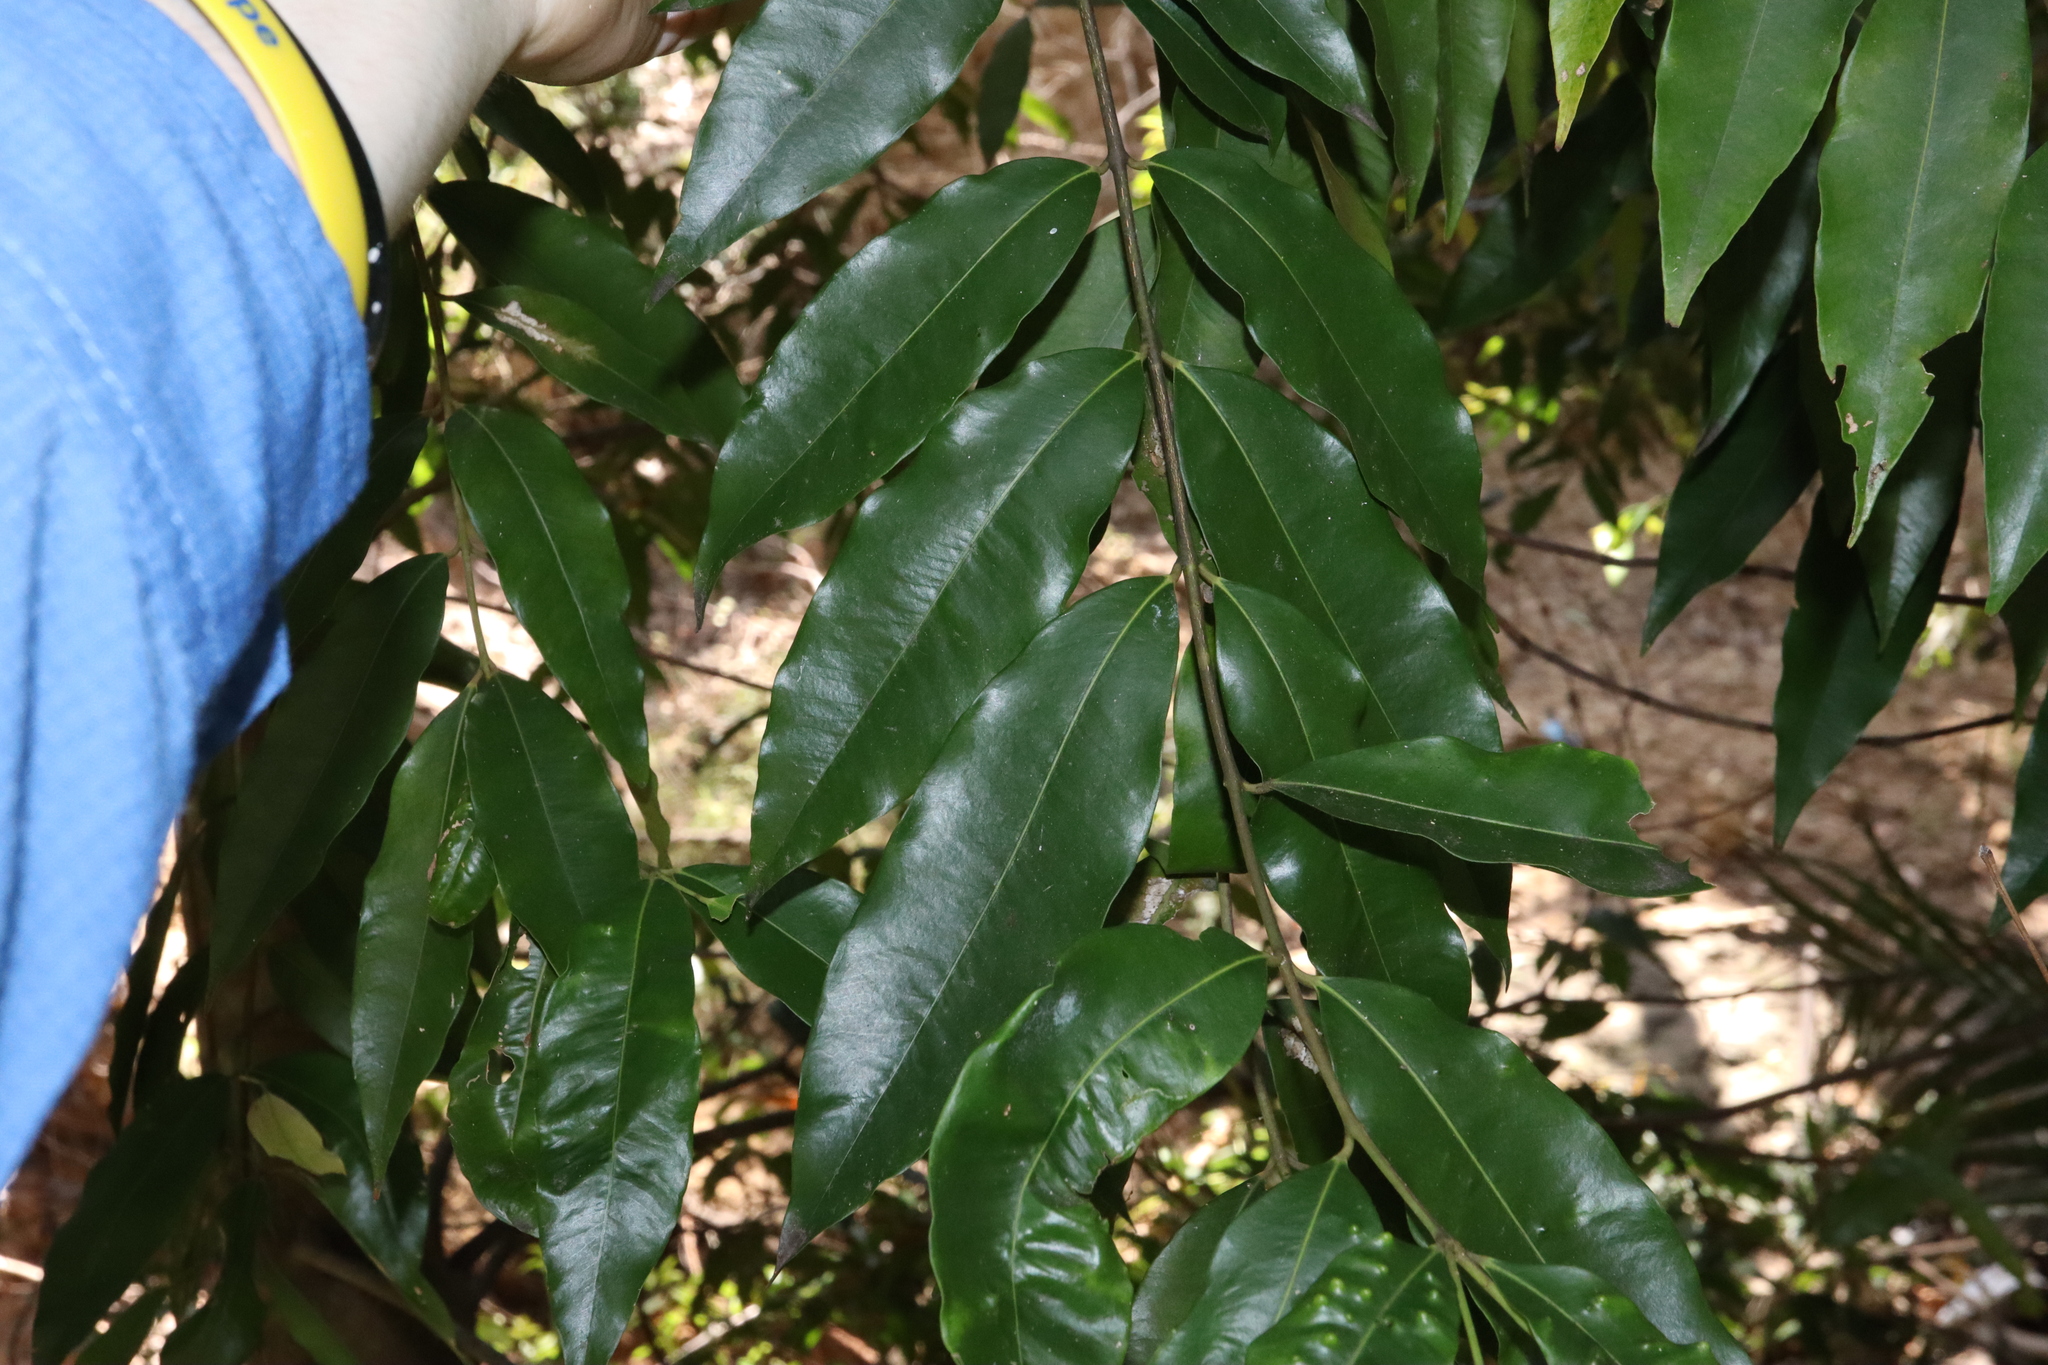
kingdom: Plantae
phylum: Tracheophyta
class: Magnoliopsida
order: Myrtales
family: Myrtaceae
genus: Syzygium
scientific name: Syzygium floribundum
